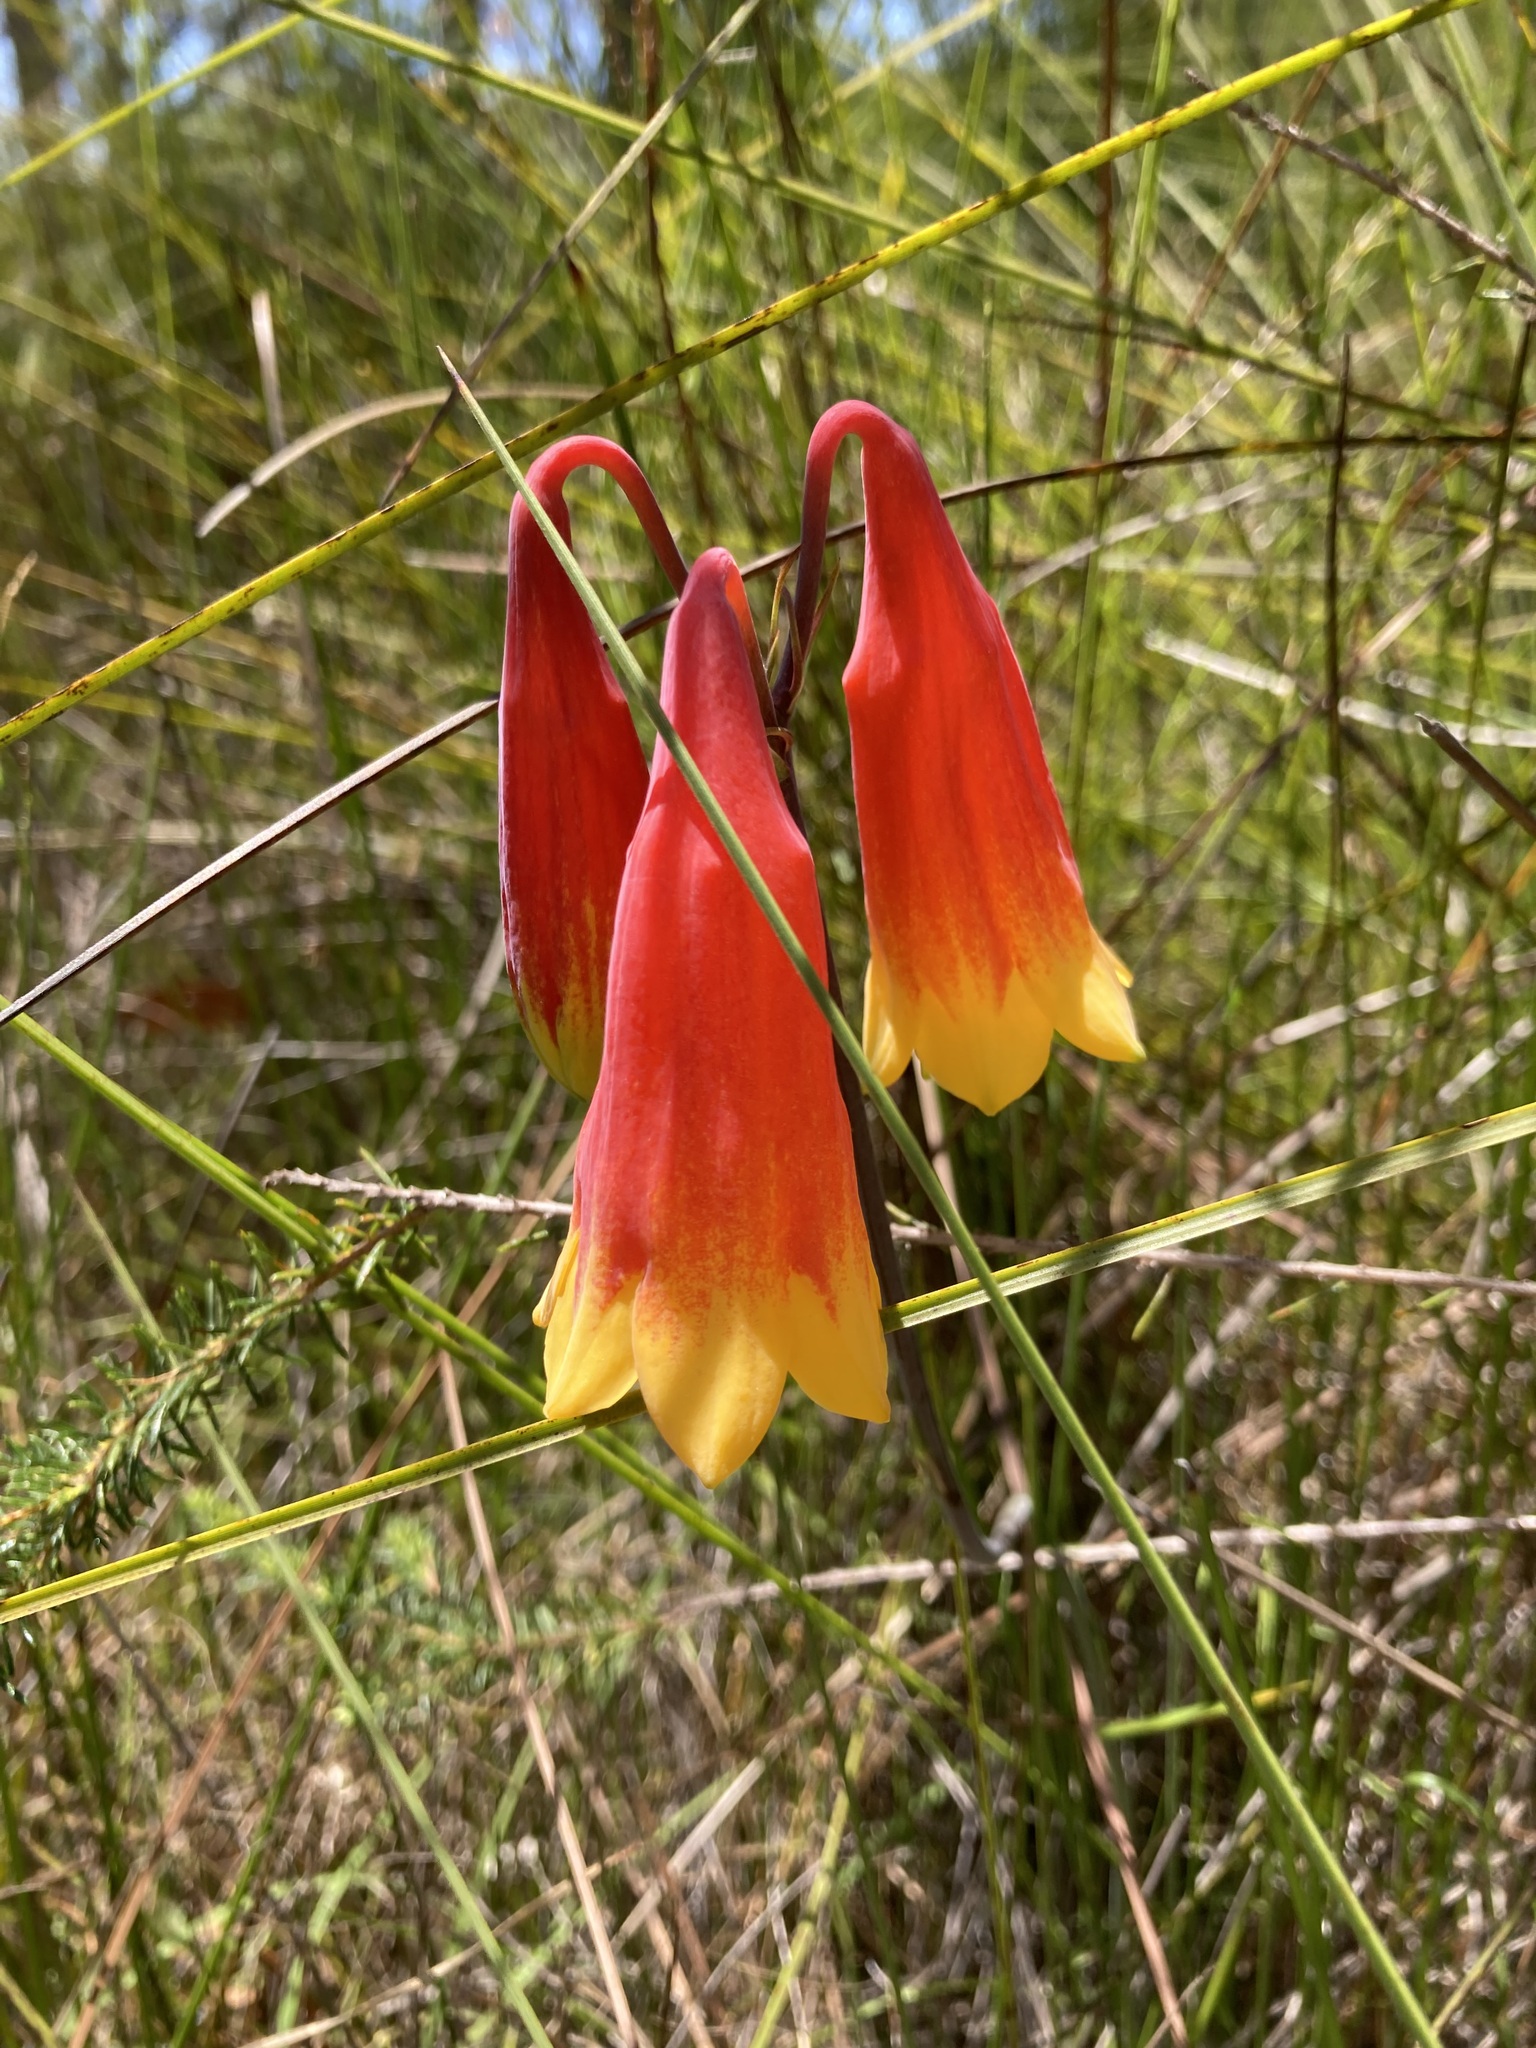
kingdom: Plantae
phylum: Tracheophyta
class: Liliopsida
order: Asparagales
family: Blandfordiaceae
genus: Blandfordia
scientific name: Blandfordia grandiflora
